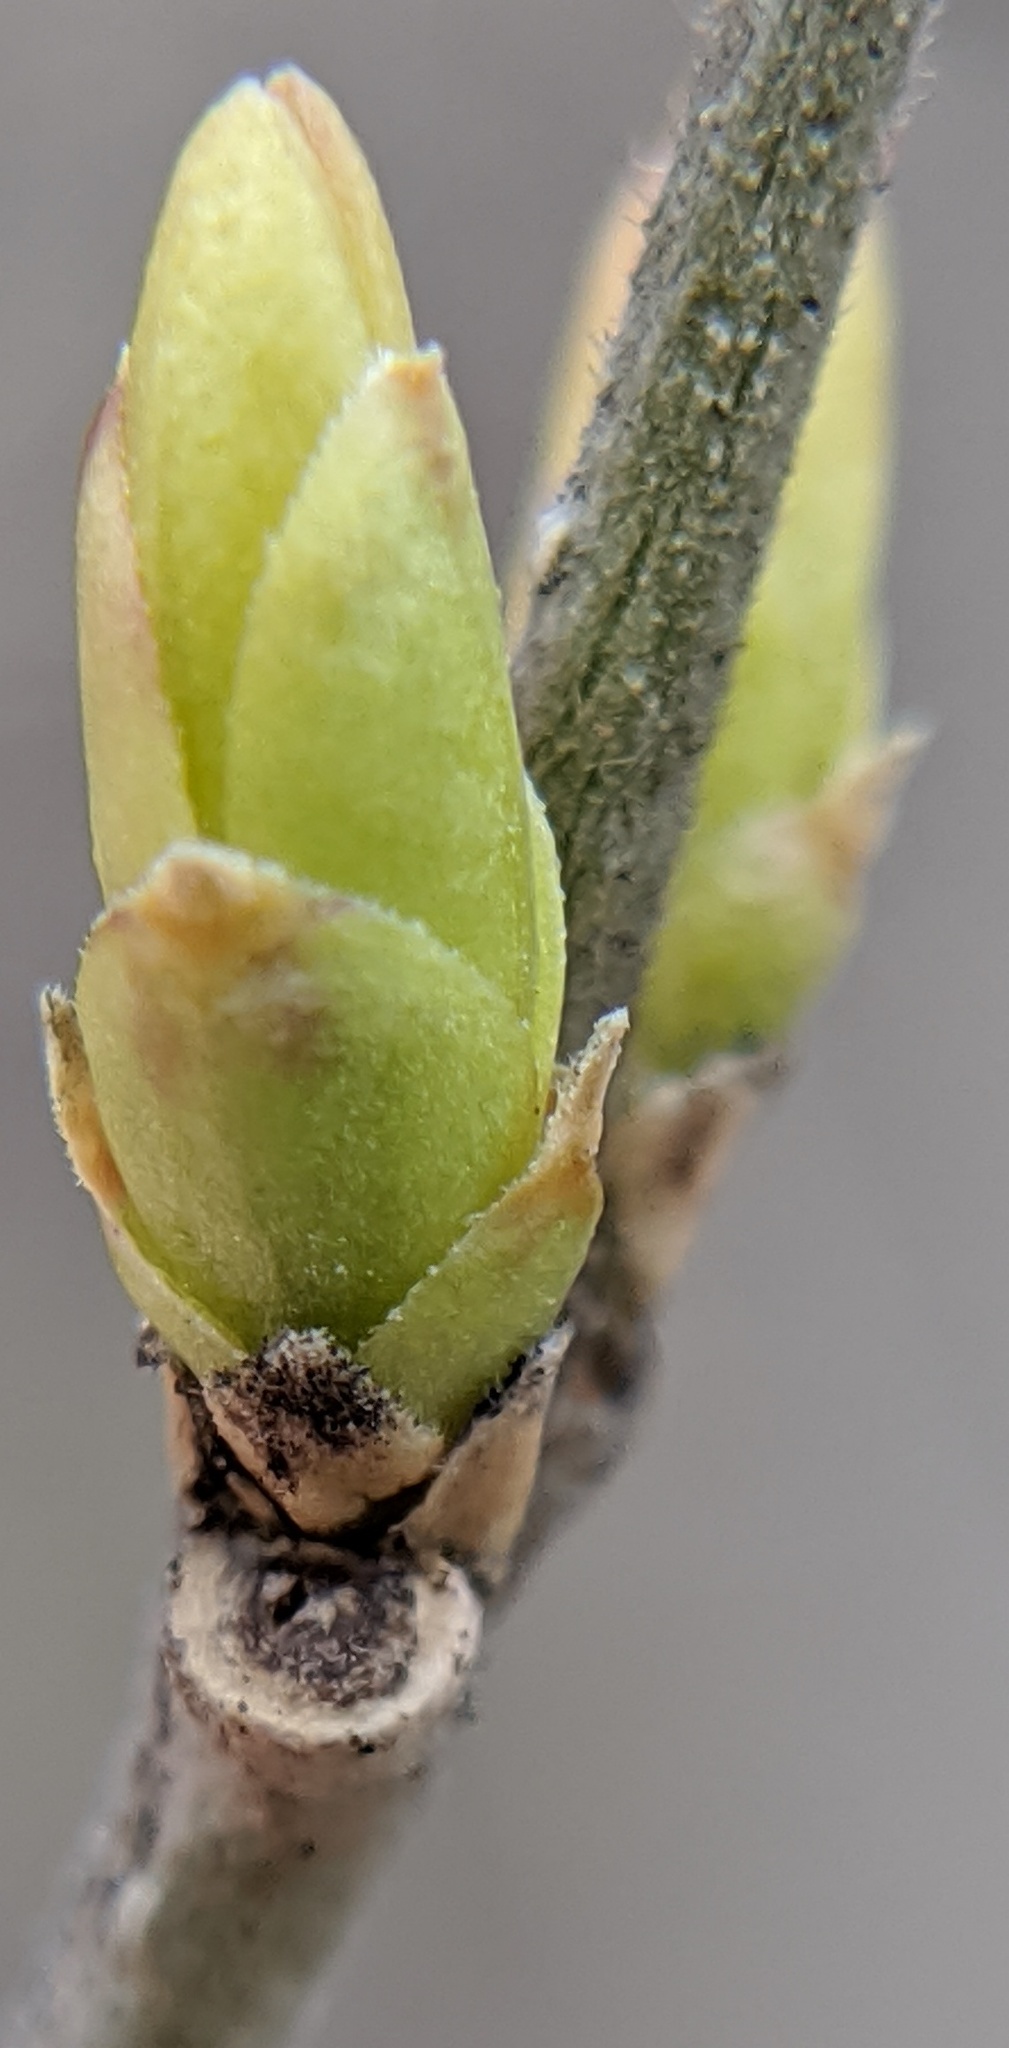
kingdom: Plantae
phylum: Tracheophyta
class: Magnoliopsida
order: Lamiales
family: Oleaceae
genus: Ligustrum
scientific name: Ligustrum obtusifolium
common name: Border privet
